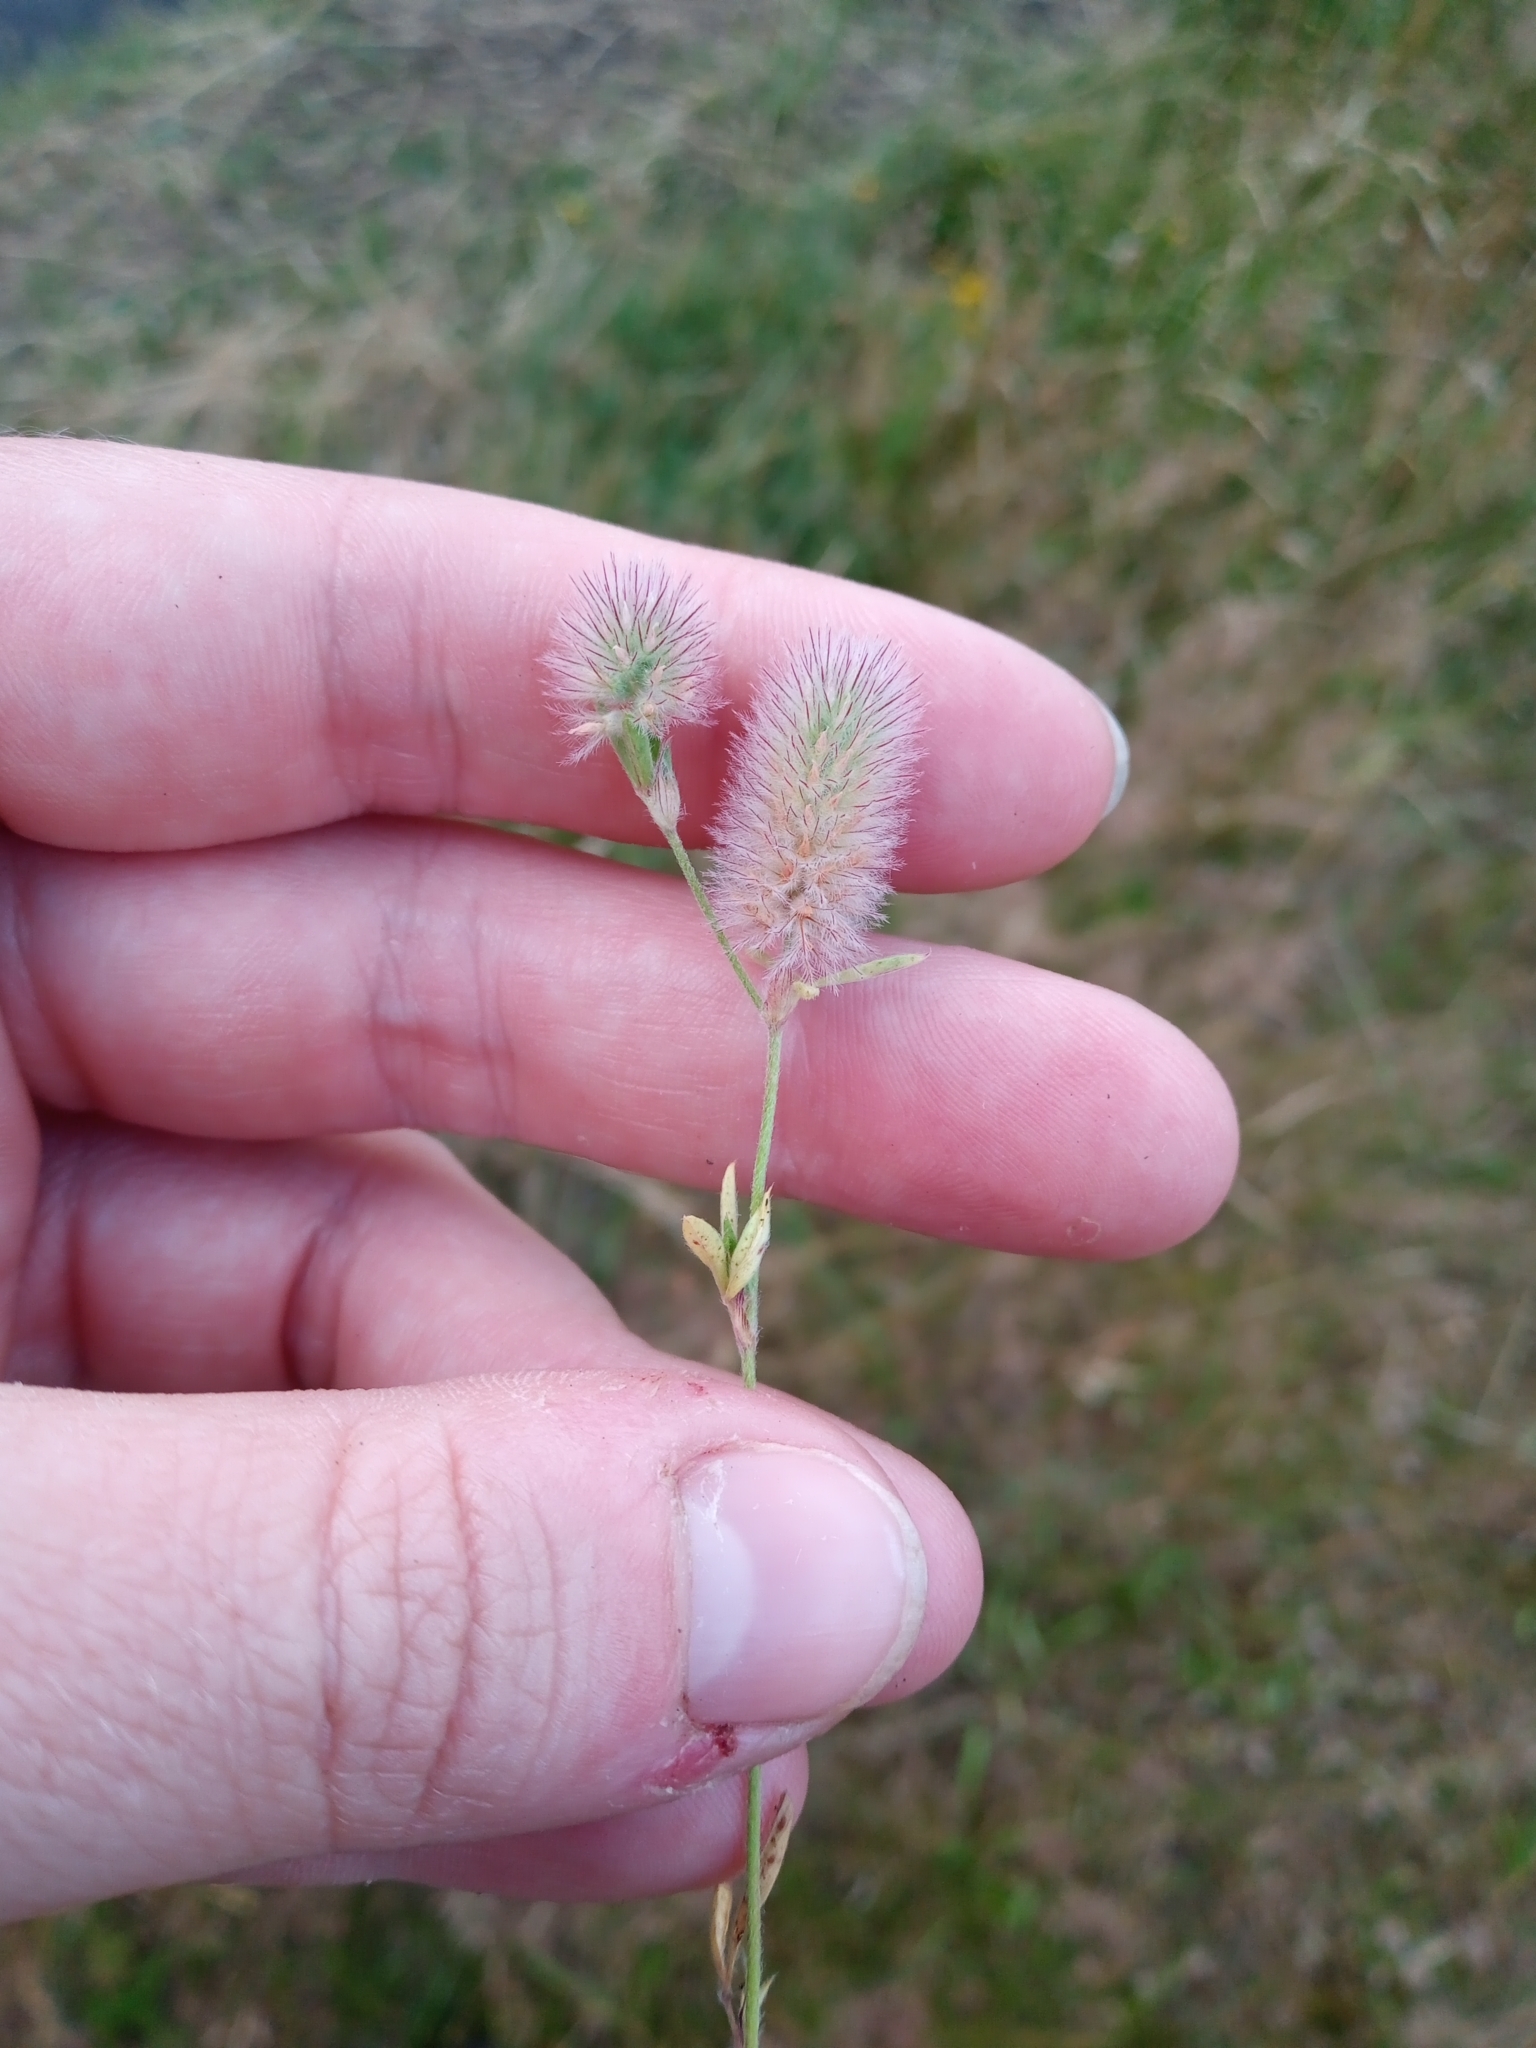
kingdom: Plantae
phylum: Tracheophyta
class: Magnoliopsida
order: Fabales
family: Fabaceae
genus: Trifolium
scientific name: Trifolium arvense
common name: Hare's-foot clover
